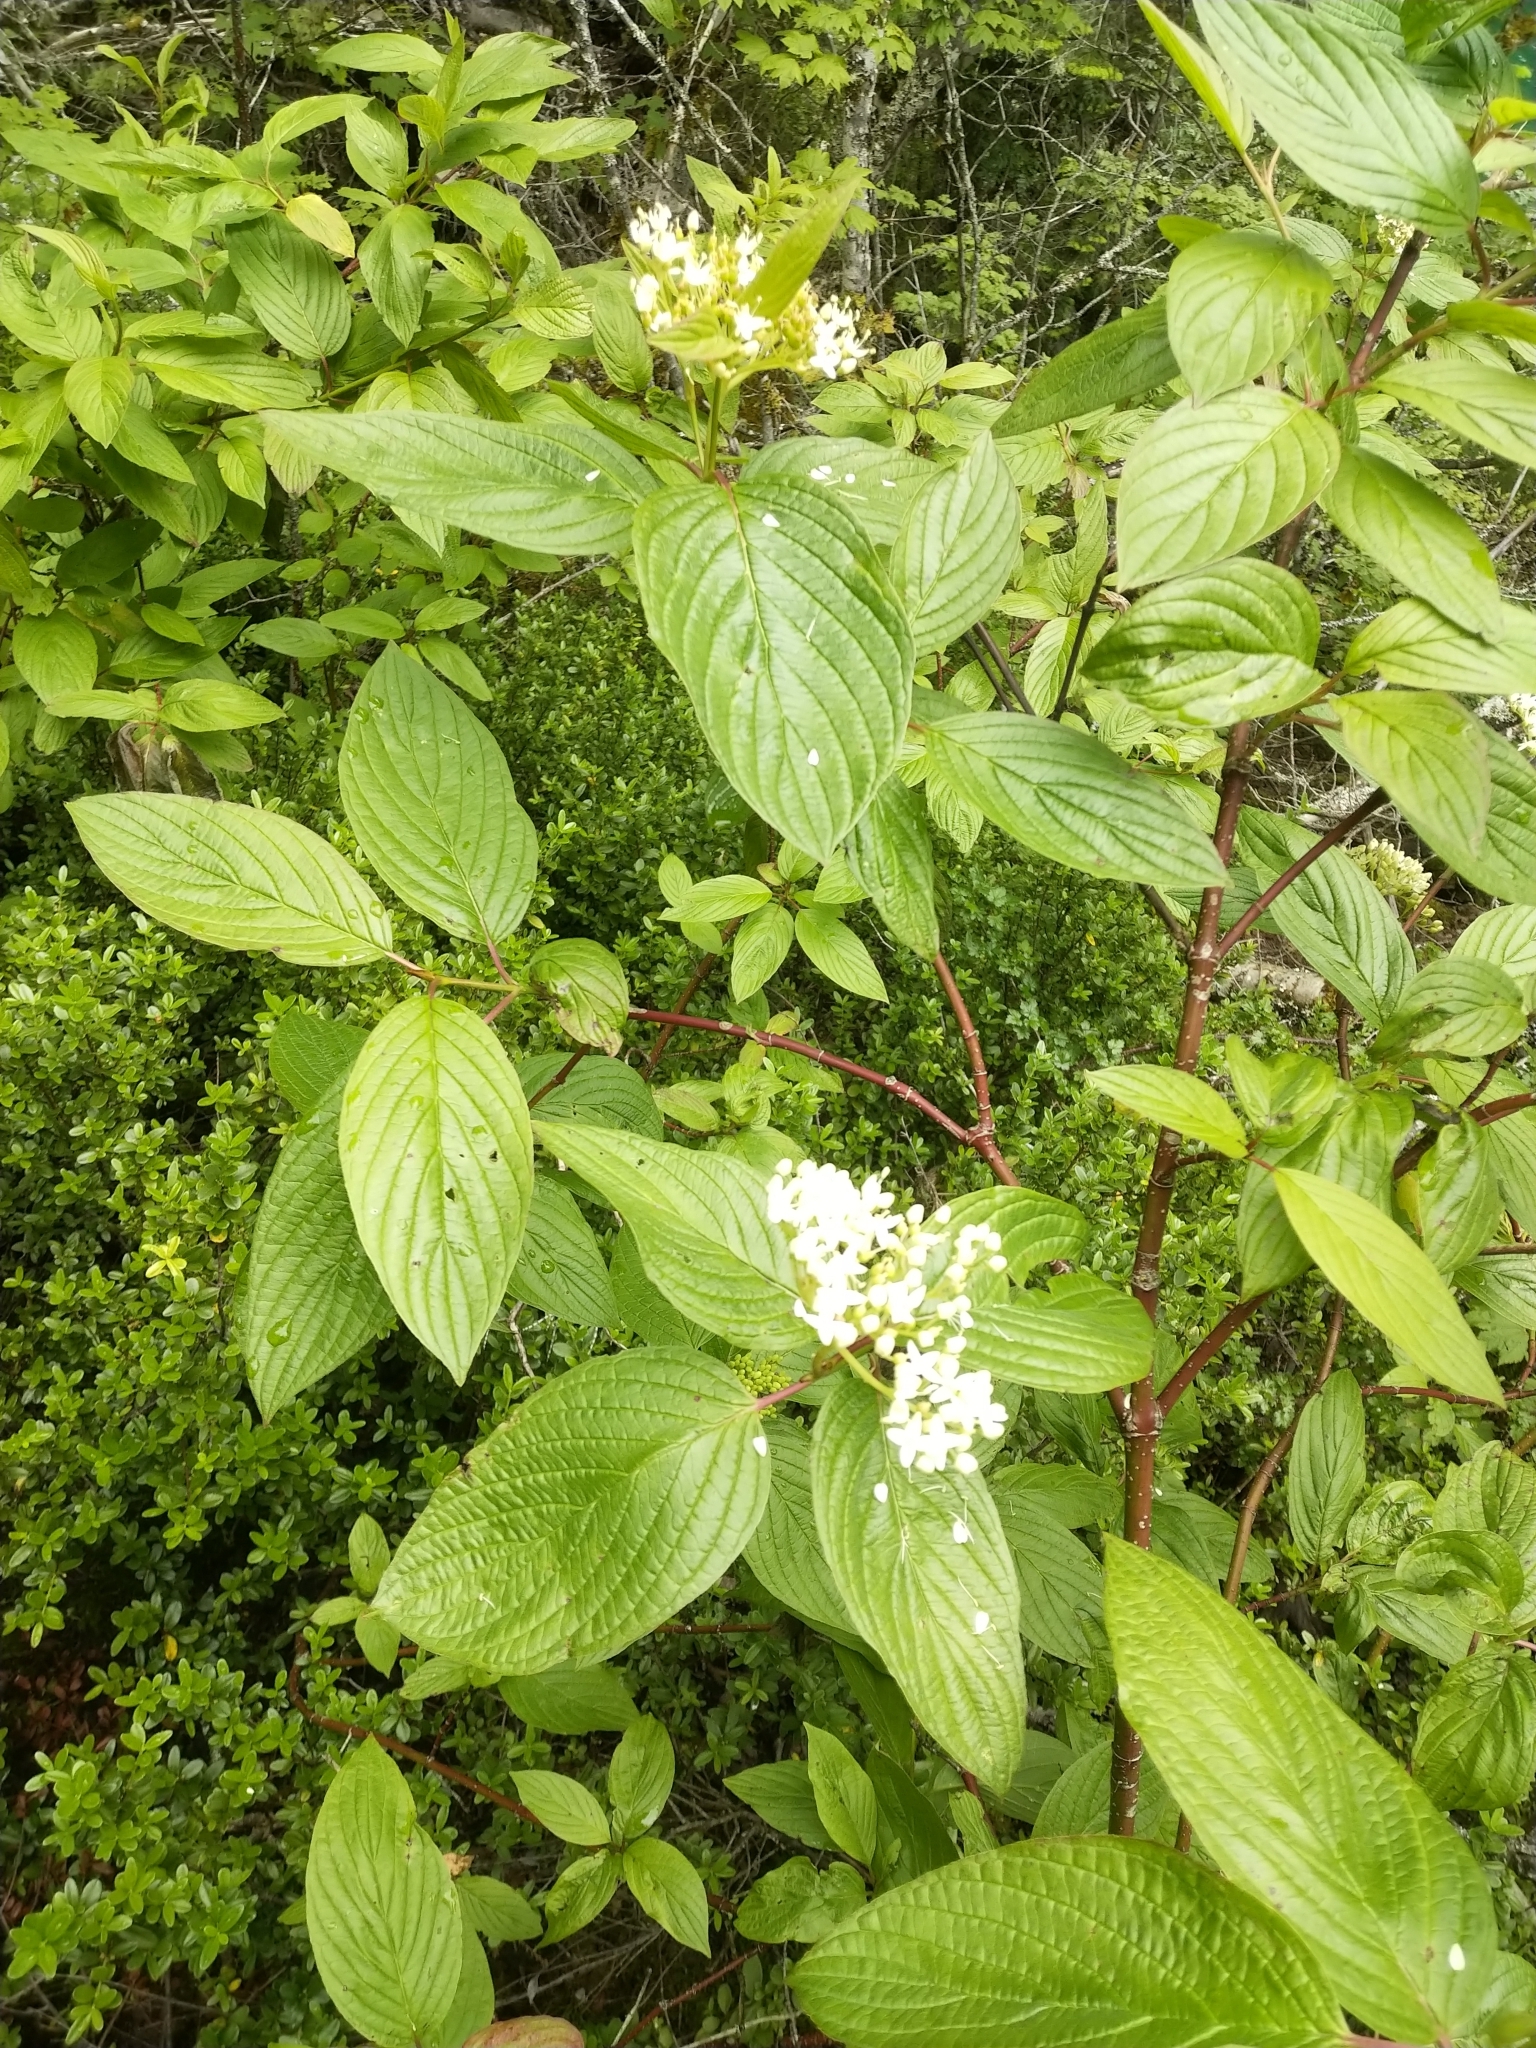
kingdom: Plantae
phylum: Tracheophyta
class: Magnoliopsida
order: Cornales
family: Cornaceae
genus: Cornus
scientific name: Cornus sericea
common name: Red-osier dogwood
